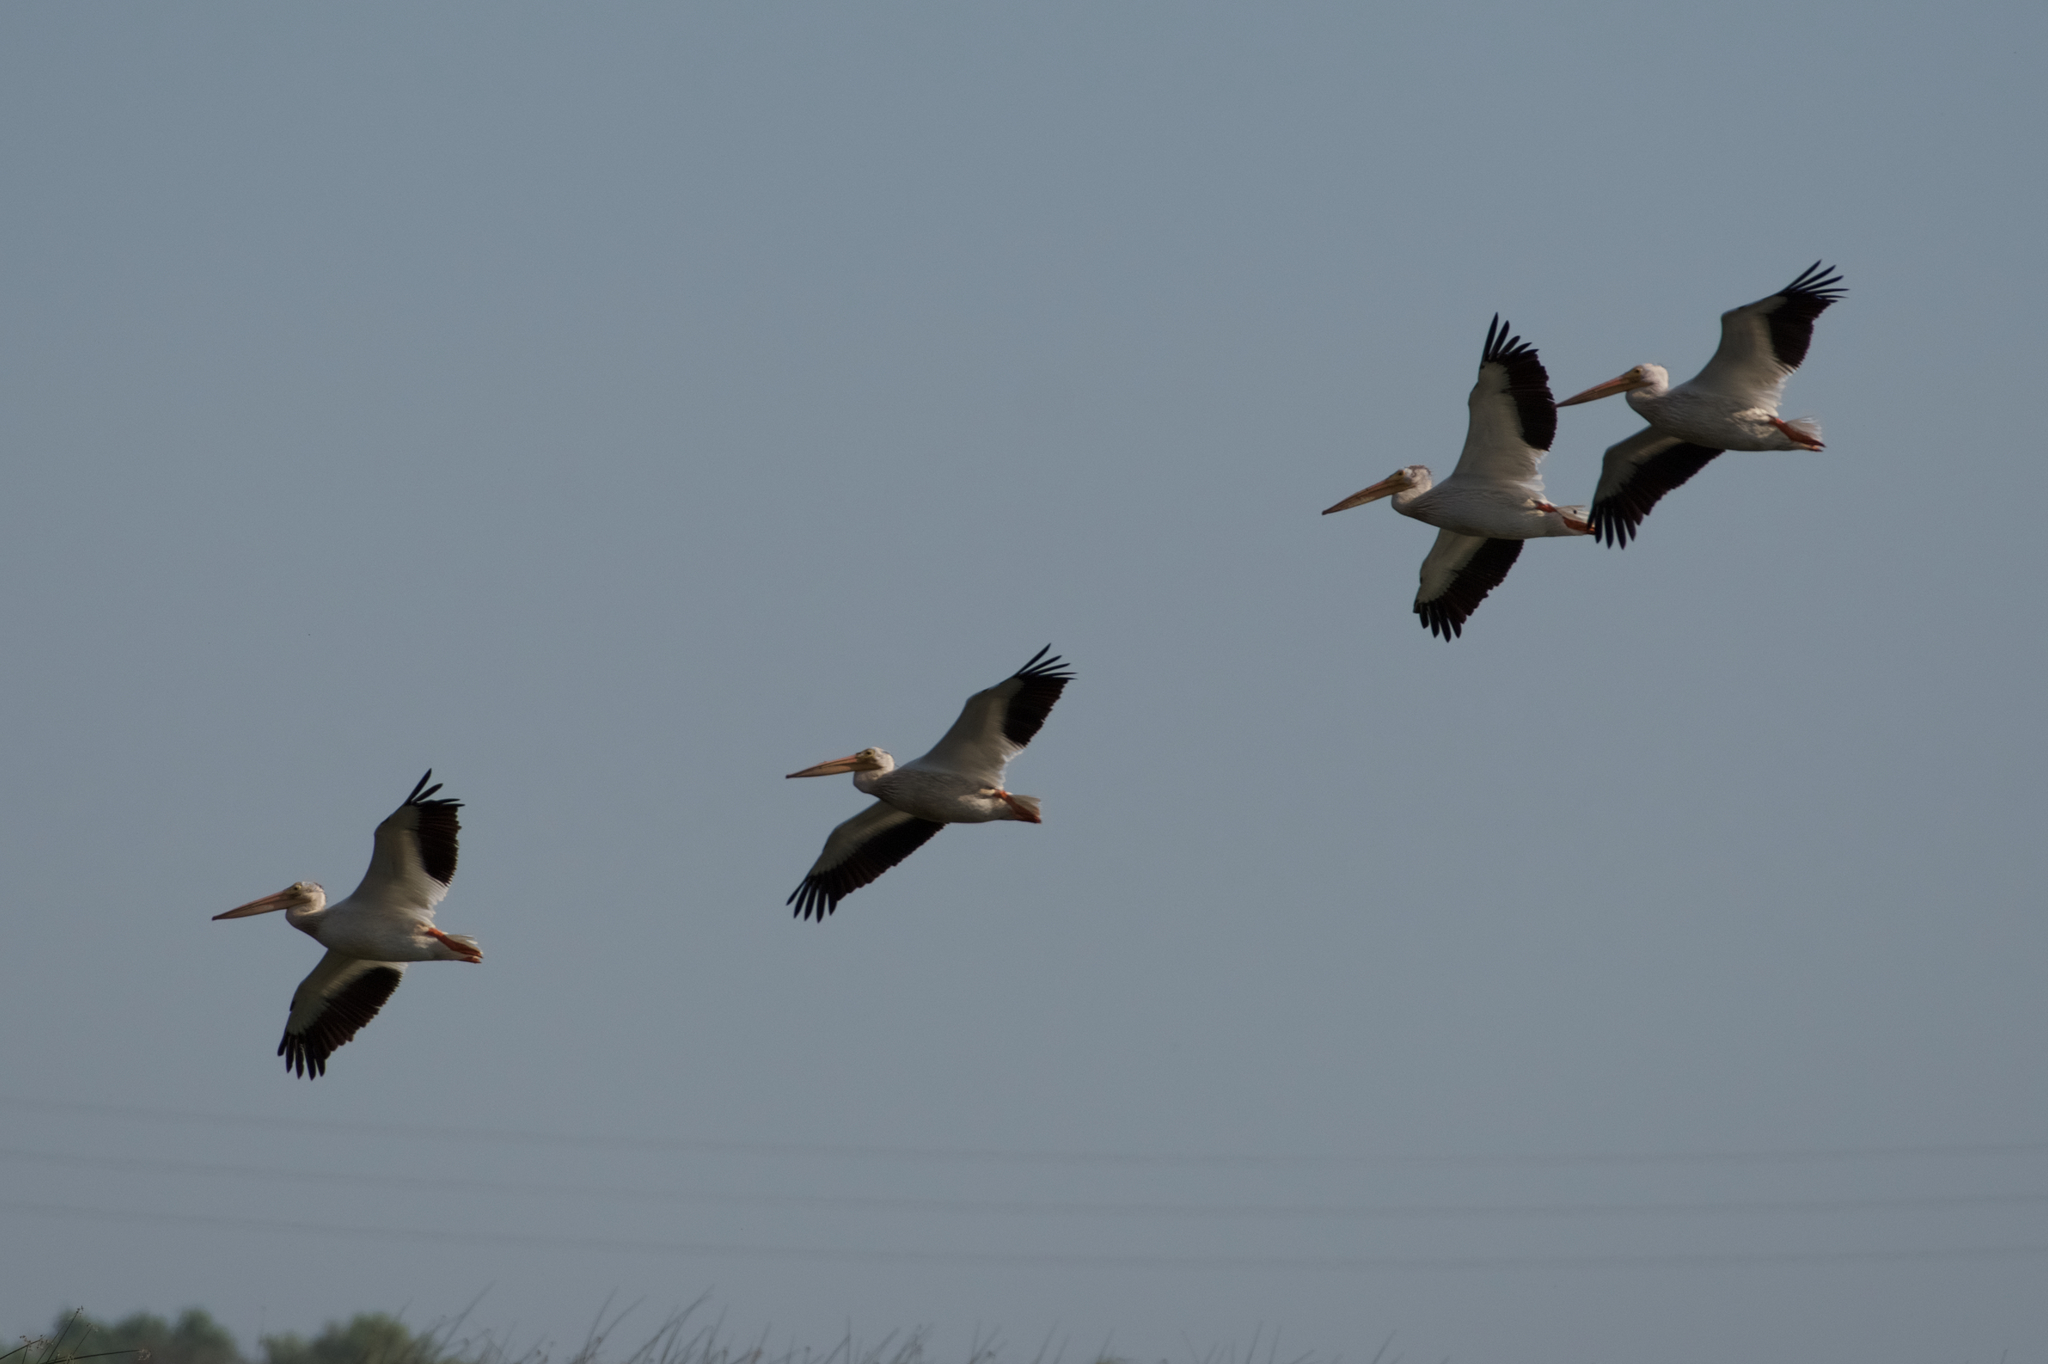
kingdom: Animalia
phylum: Chordata
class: Aves
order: Pelecaniformes
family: Pelecanidae
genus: Pelecanus
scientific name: Pelecanus erythrorhynchos
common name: American white pelican
